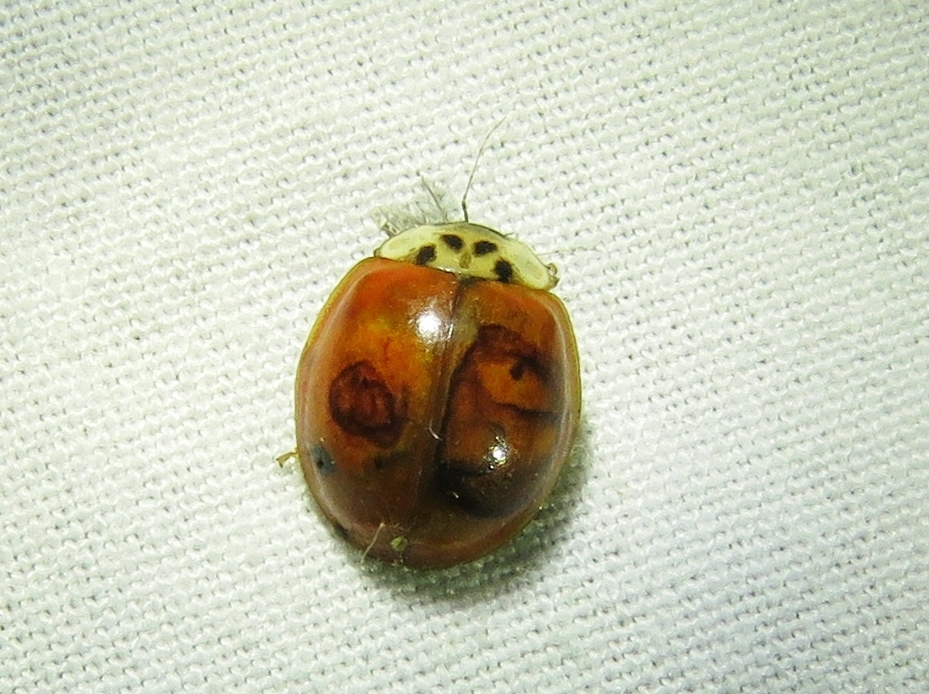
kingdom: Animalia
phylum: Arthropoda
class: Insecta
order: Coleoptera
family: Coccinellidae
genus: Harmonia
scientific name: Harmonia axyridis
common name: Harlequin ladybird
